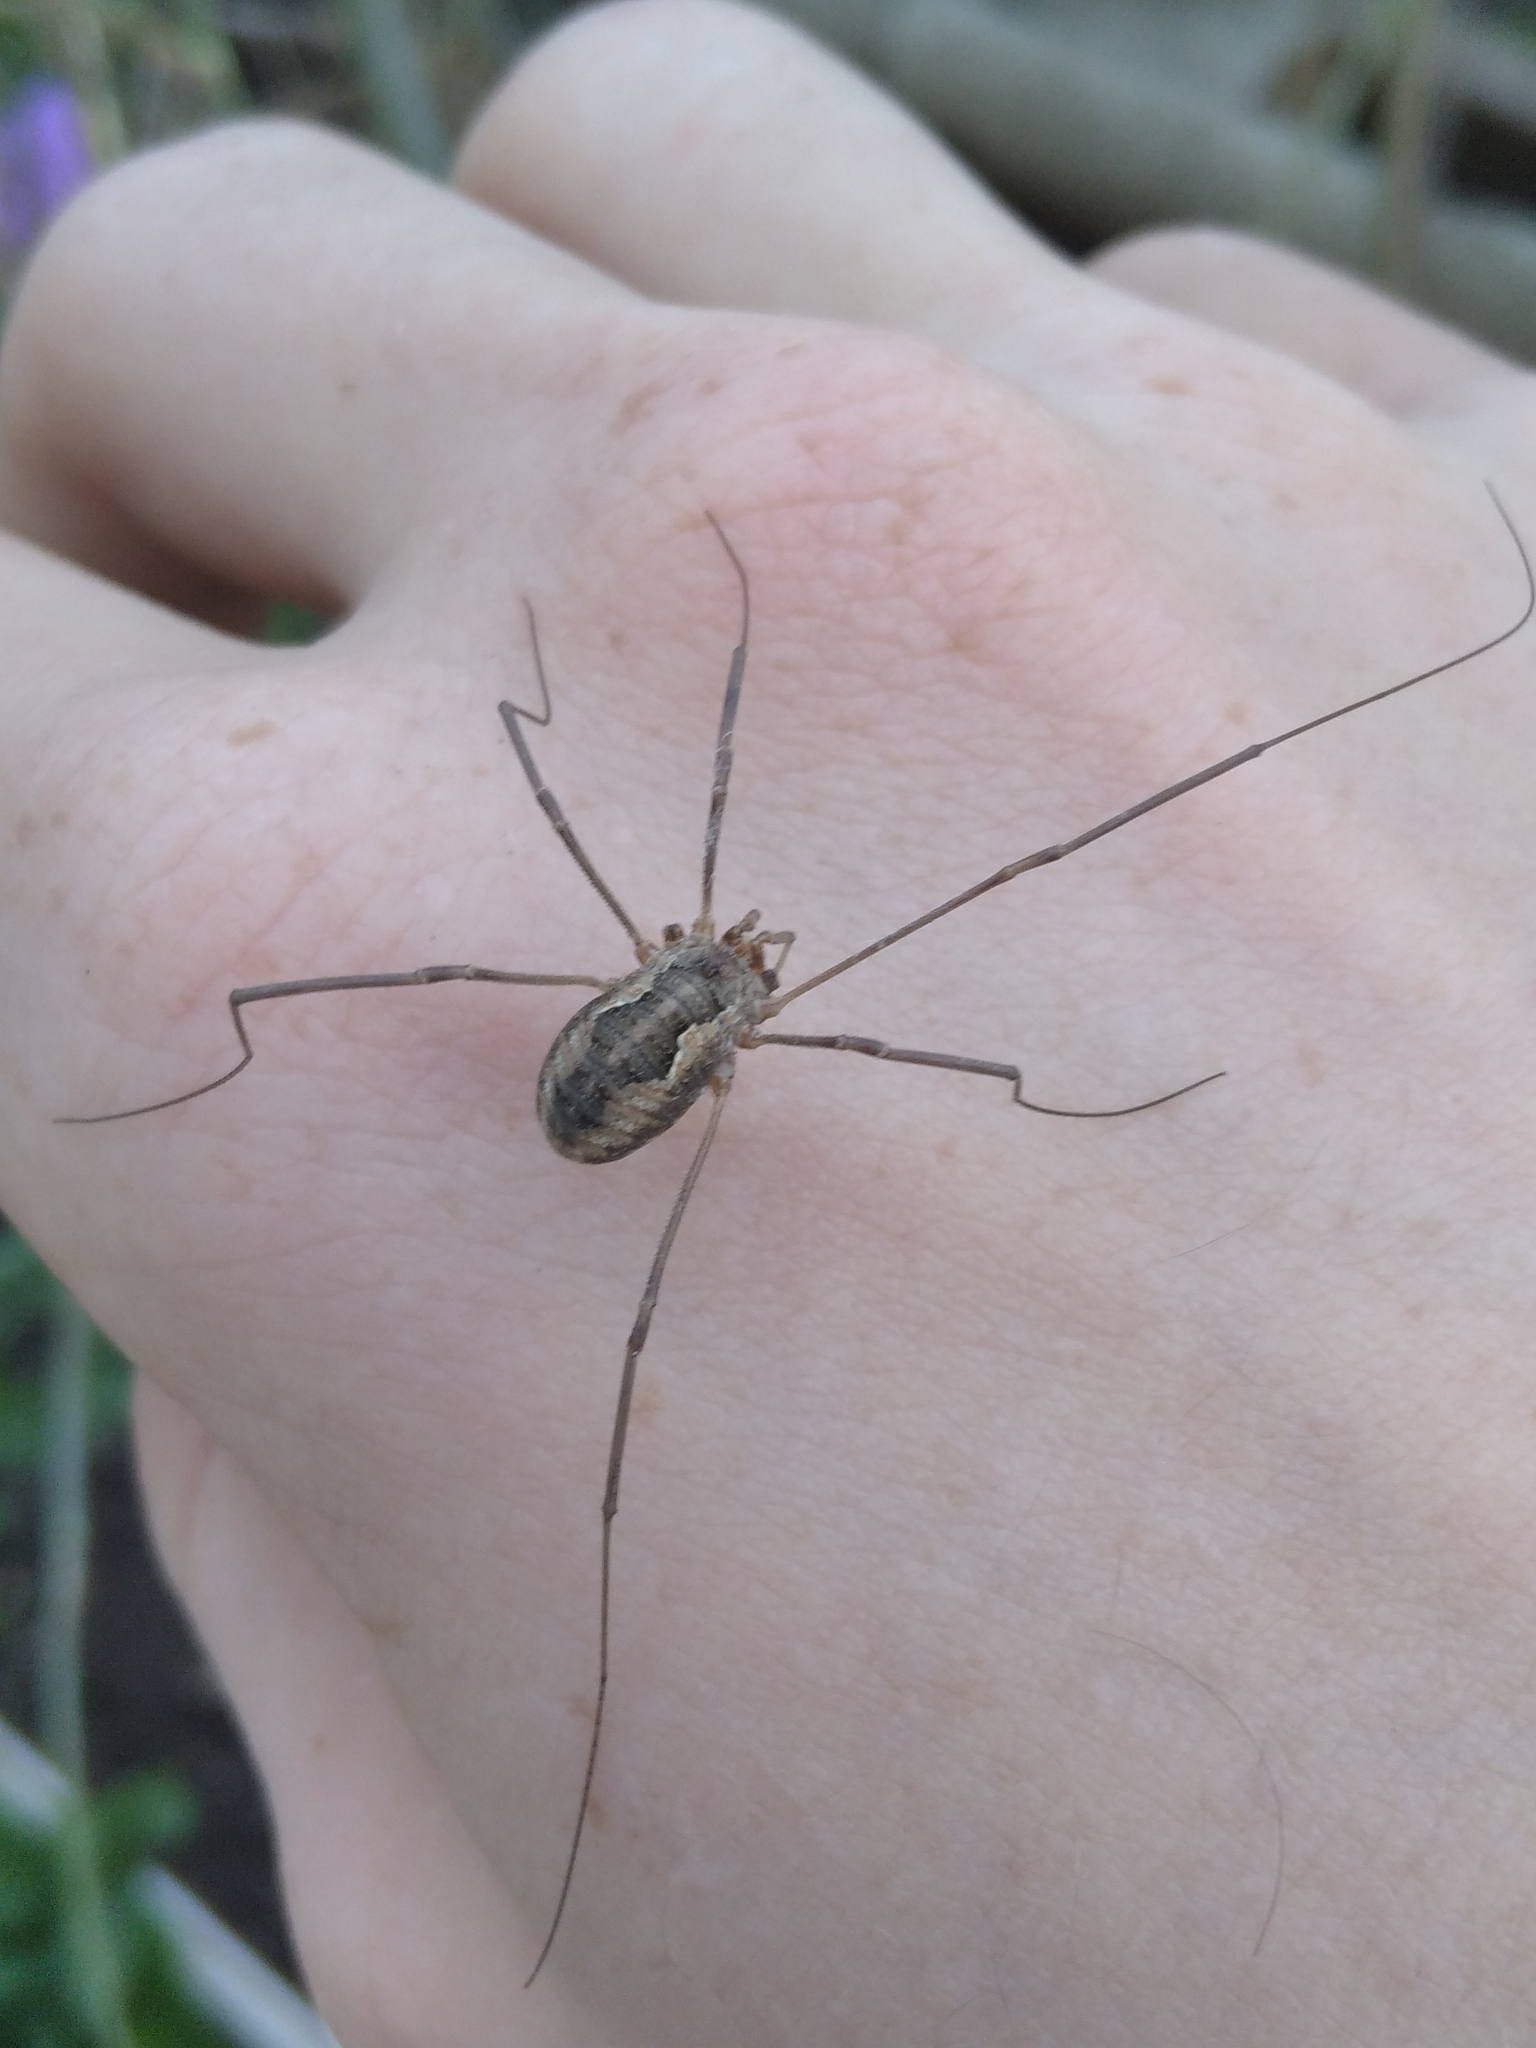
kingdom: Animalia
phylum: Arthropoda
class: Arachnida
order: Opiliones
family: Phalangiidae
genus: Phalangium
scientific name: Phalangium opilio
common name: Daddy longleg
